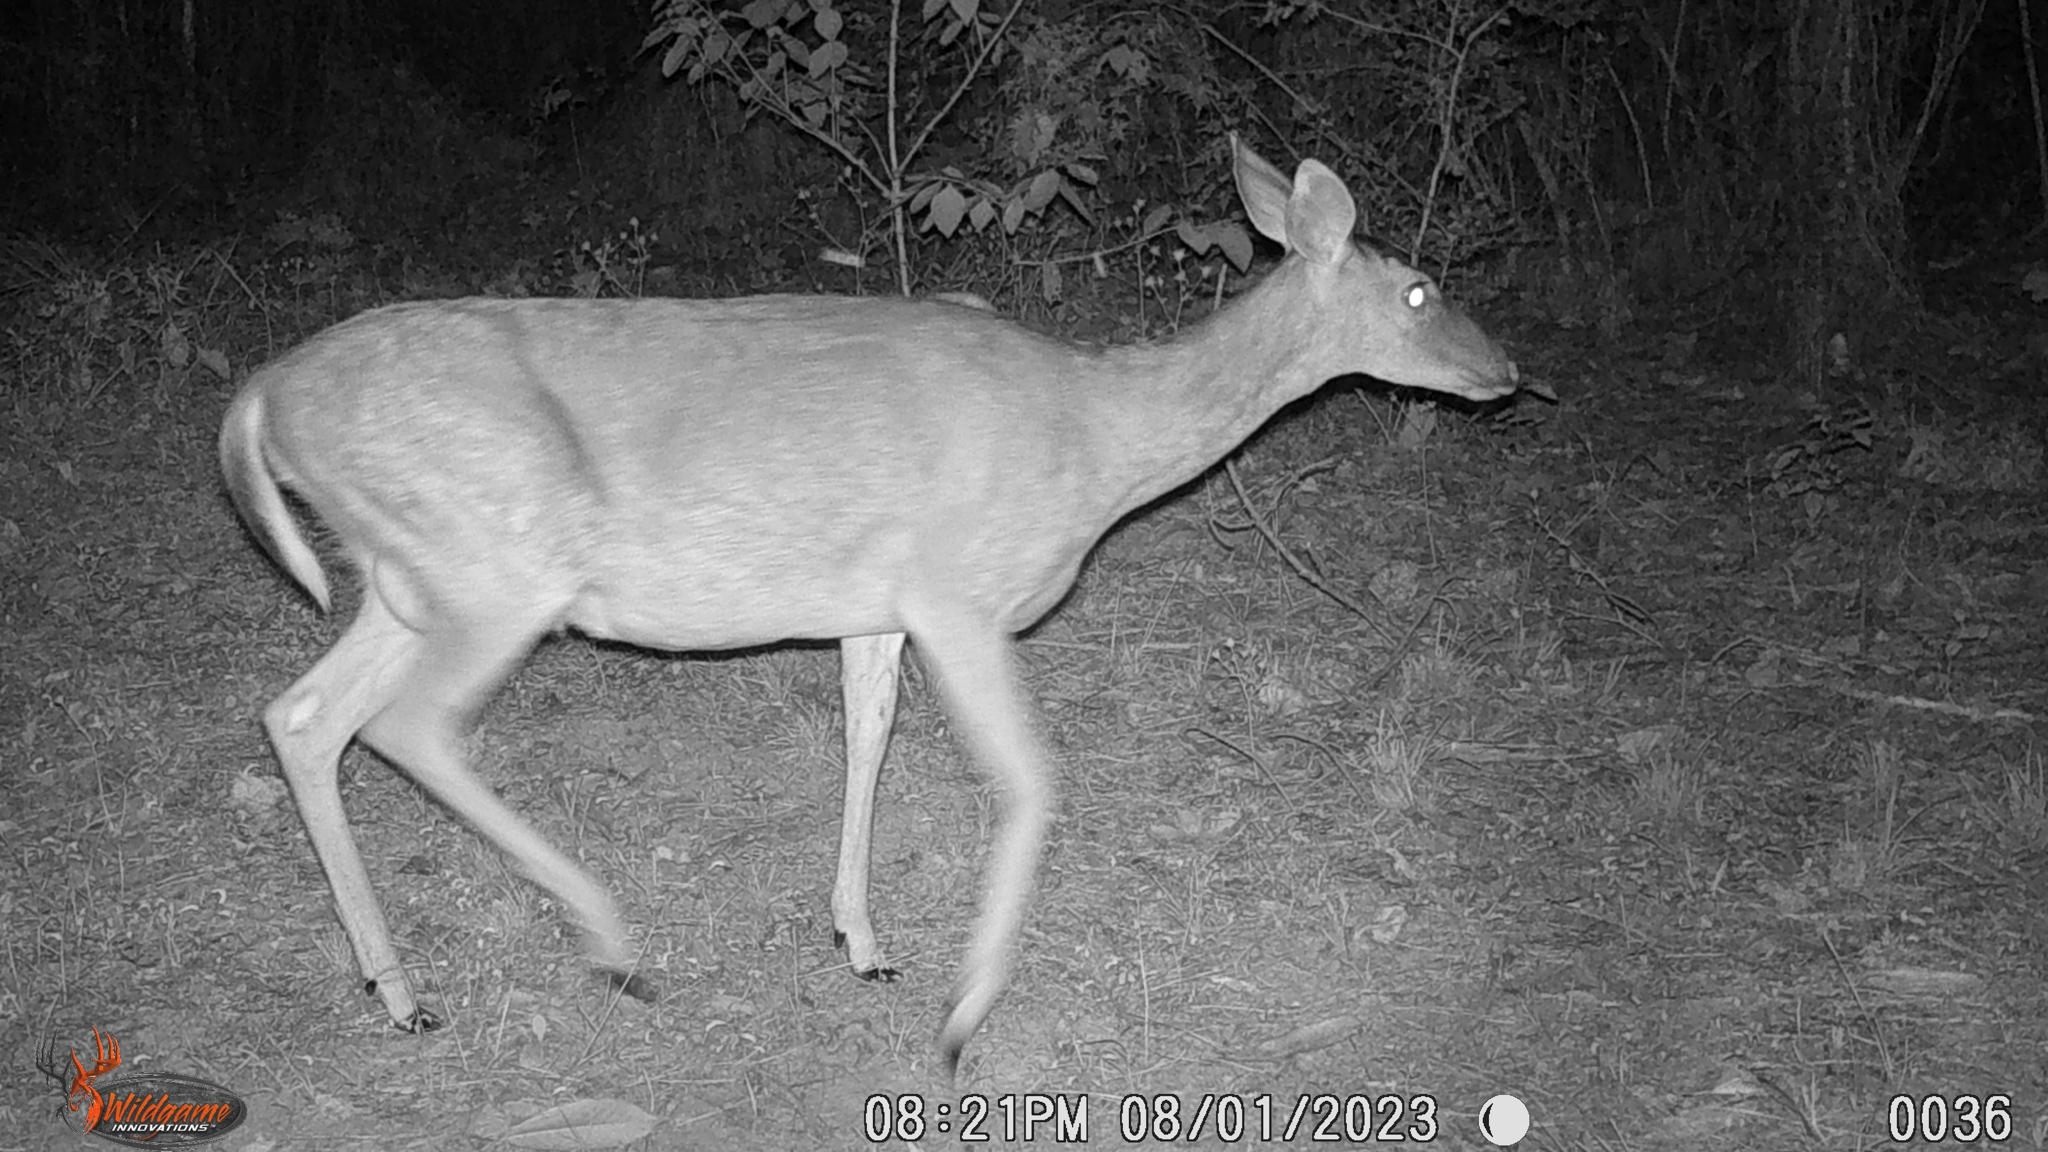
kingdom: Animalia
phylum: Chordata
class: Mammalia
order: Artiodactyla
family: Cervidae
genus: Odocoileus
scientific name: Odocoileus virginianus
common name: White-tailed deer
